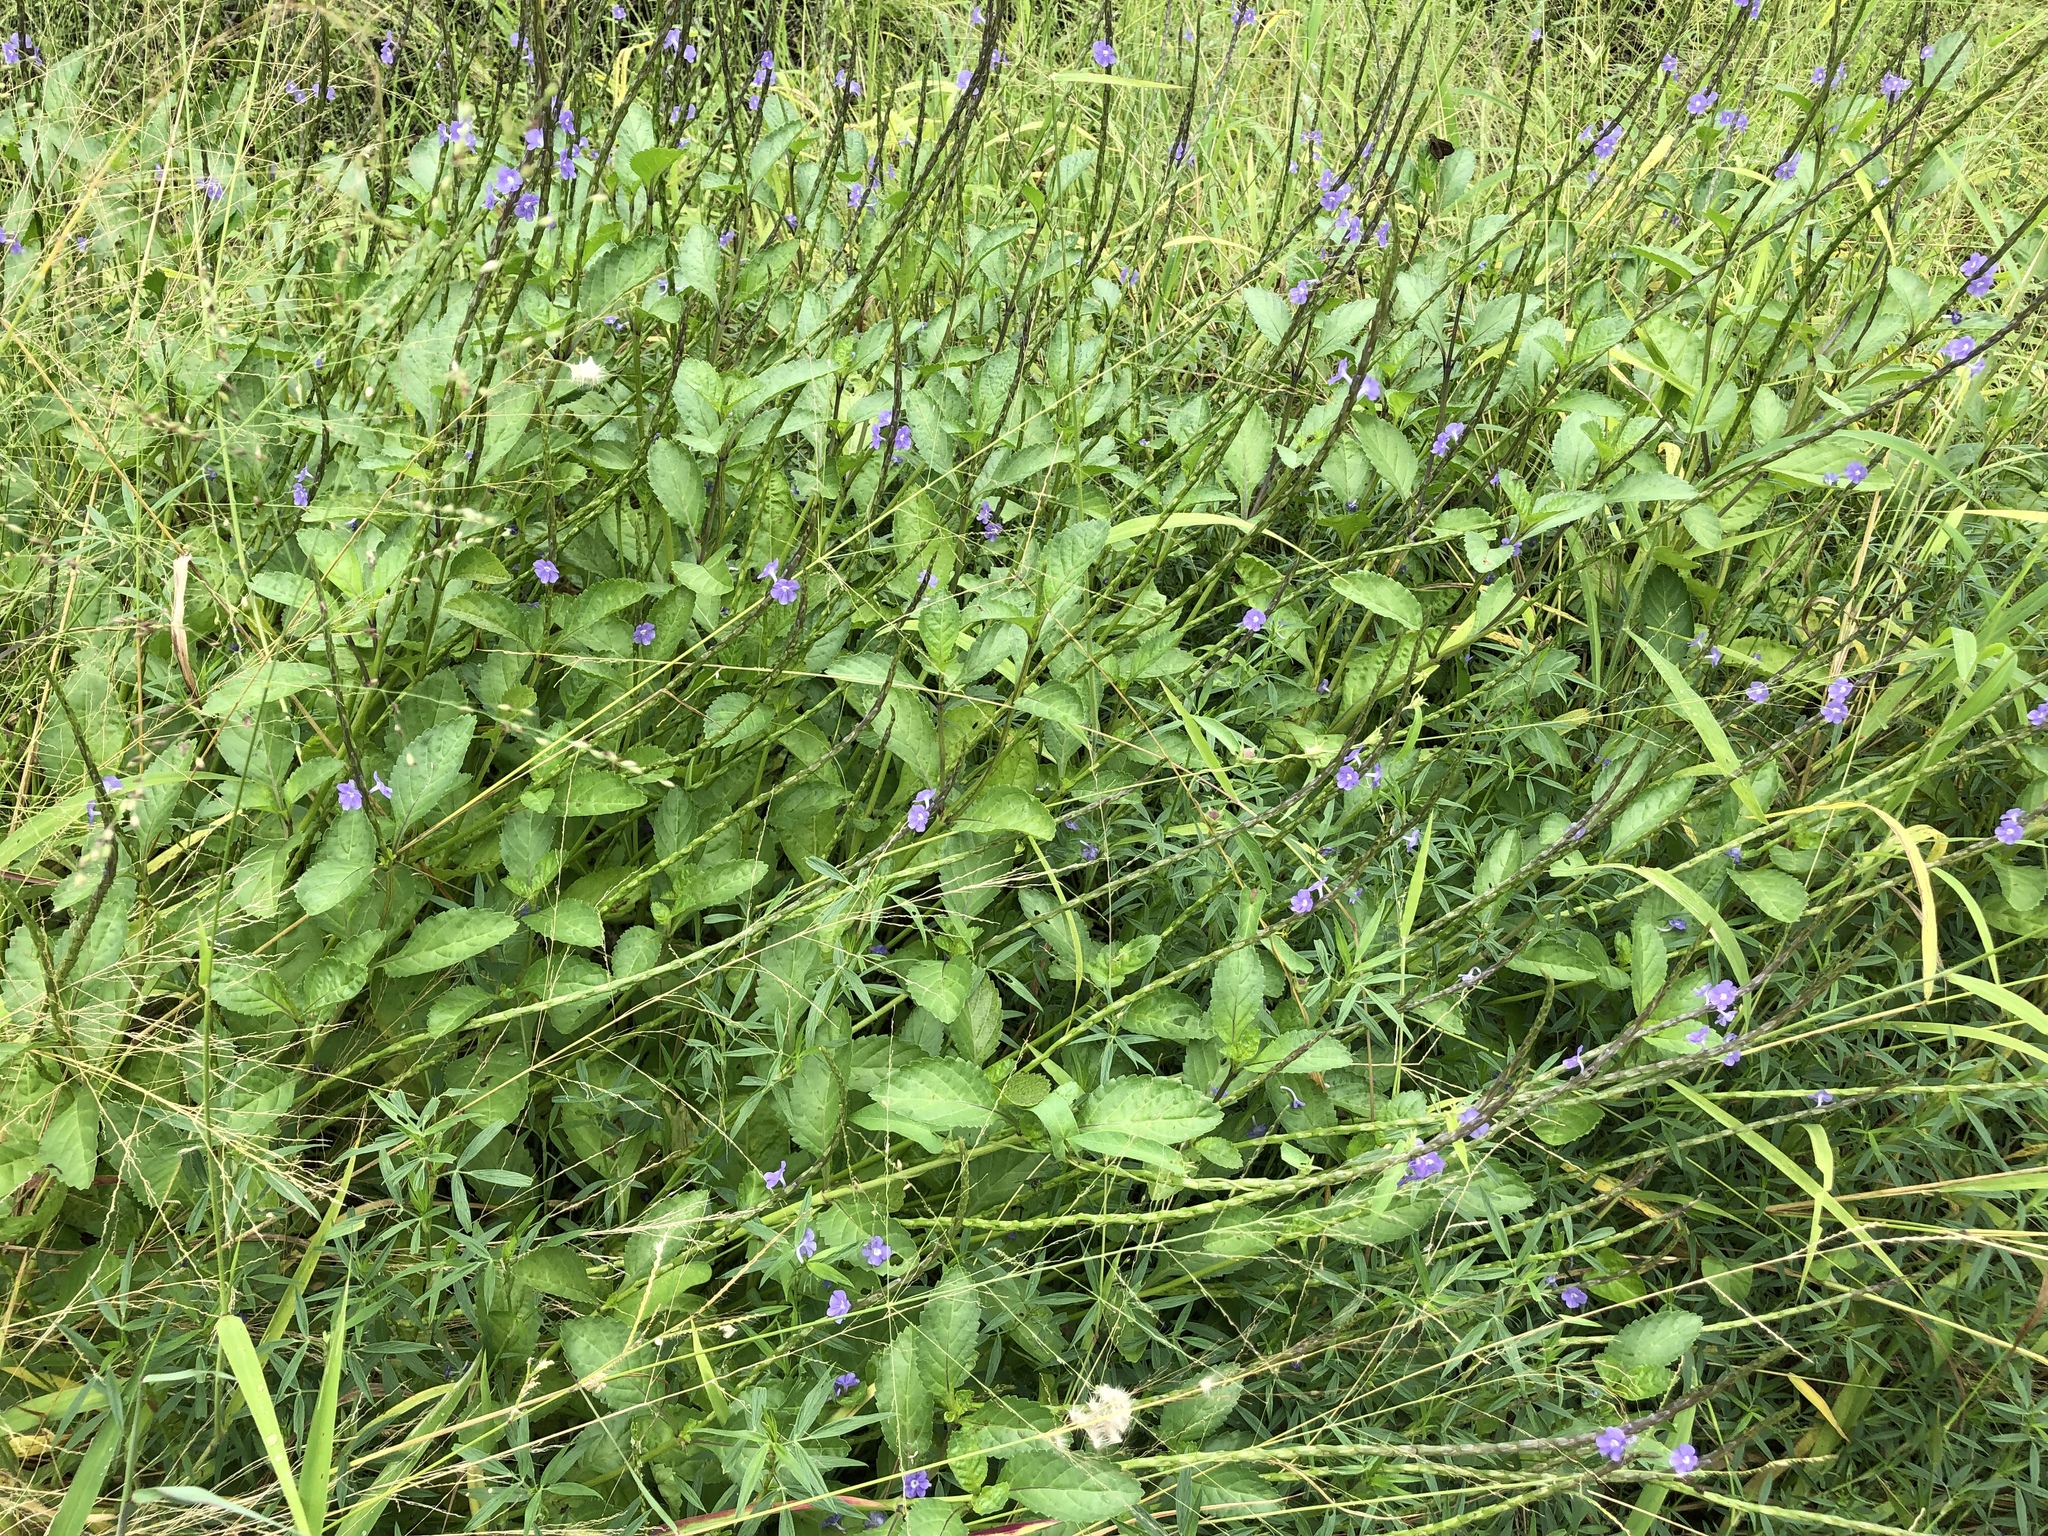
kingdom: Plantae
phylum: Tracheophyta
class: Magnoliopsida
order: Lamiales
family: Verbenaceae
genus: Stachytarpheta
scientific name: Stachytarpheta jamaicensis
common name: Light-blue snakeweed
